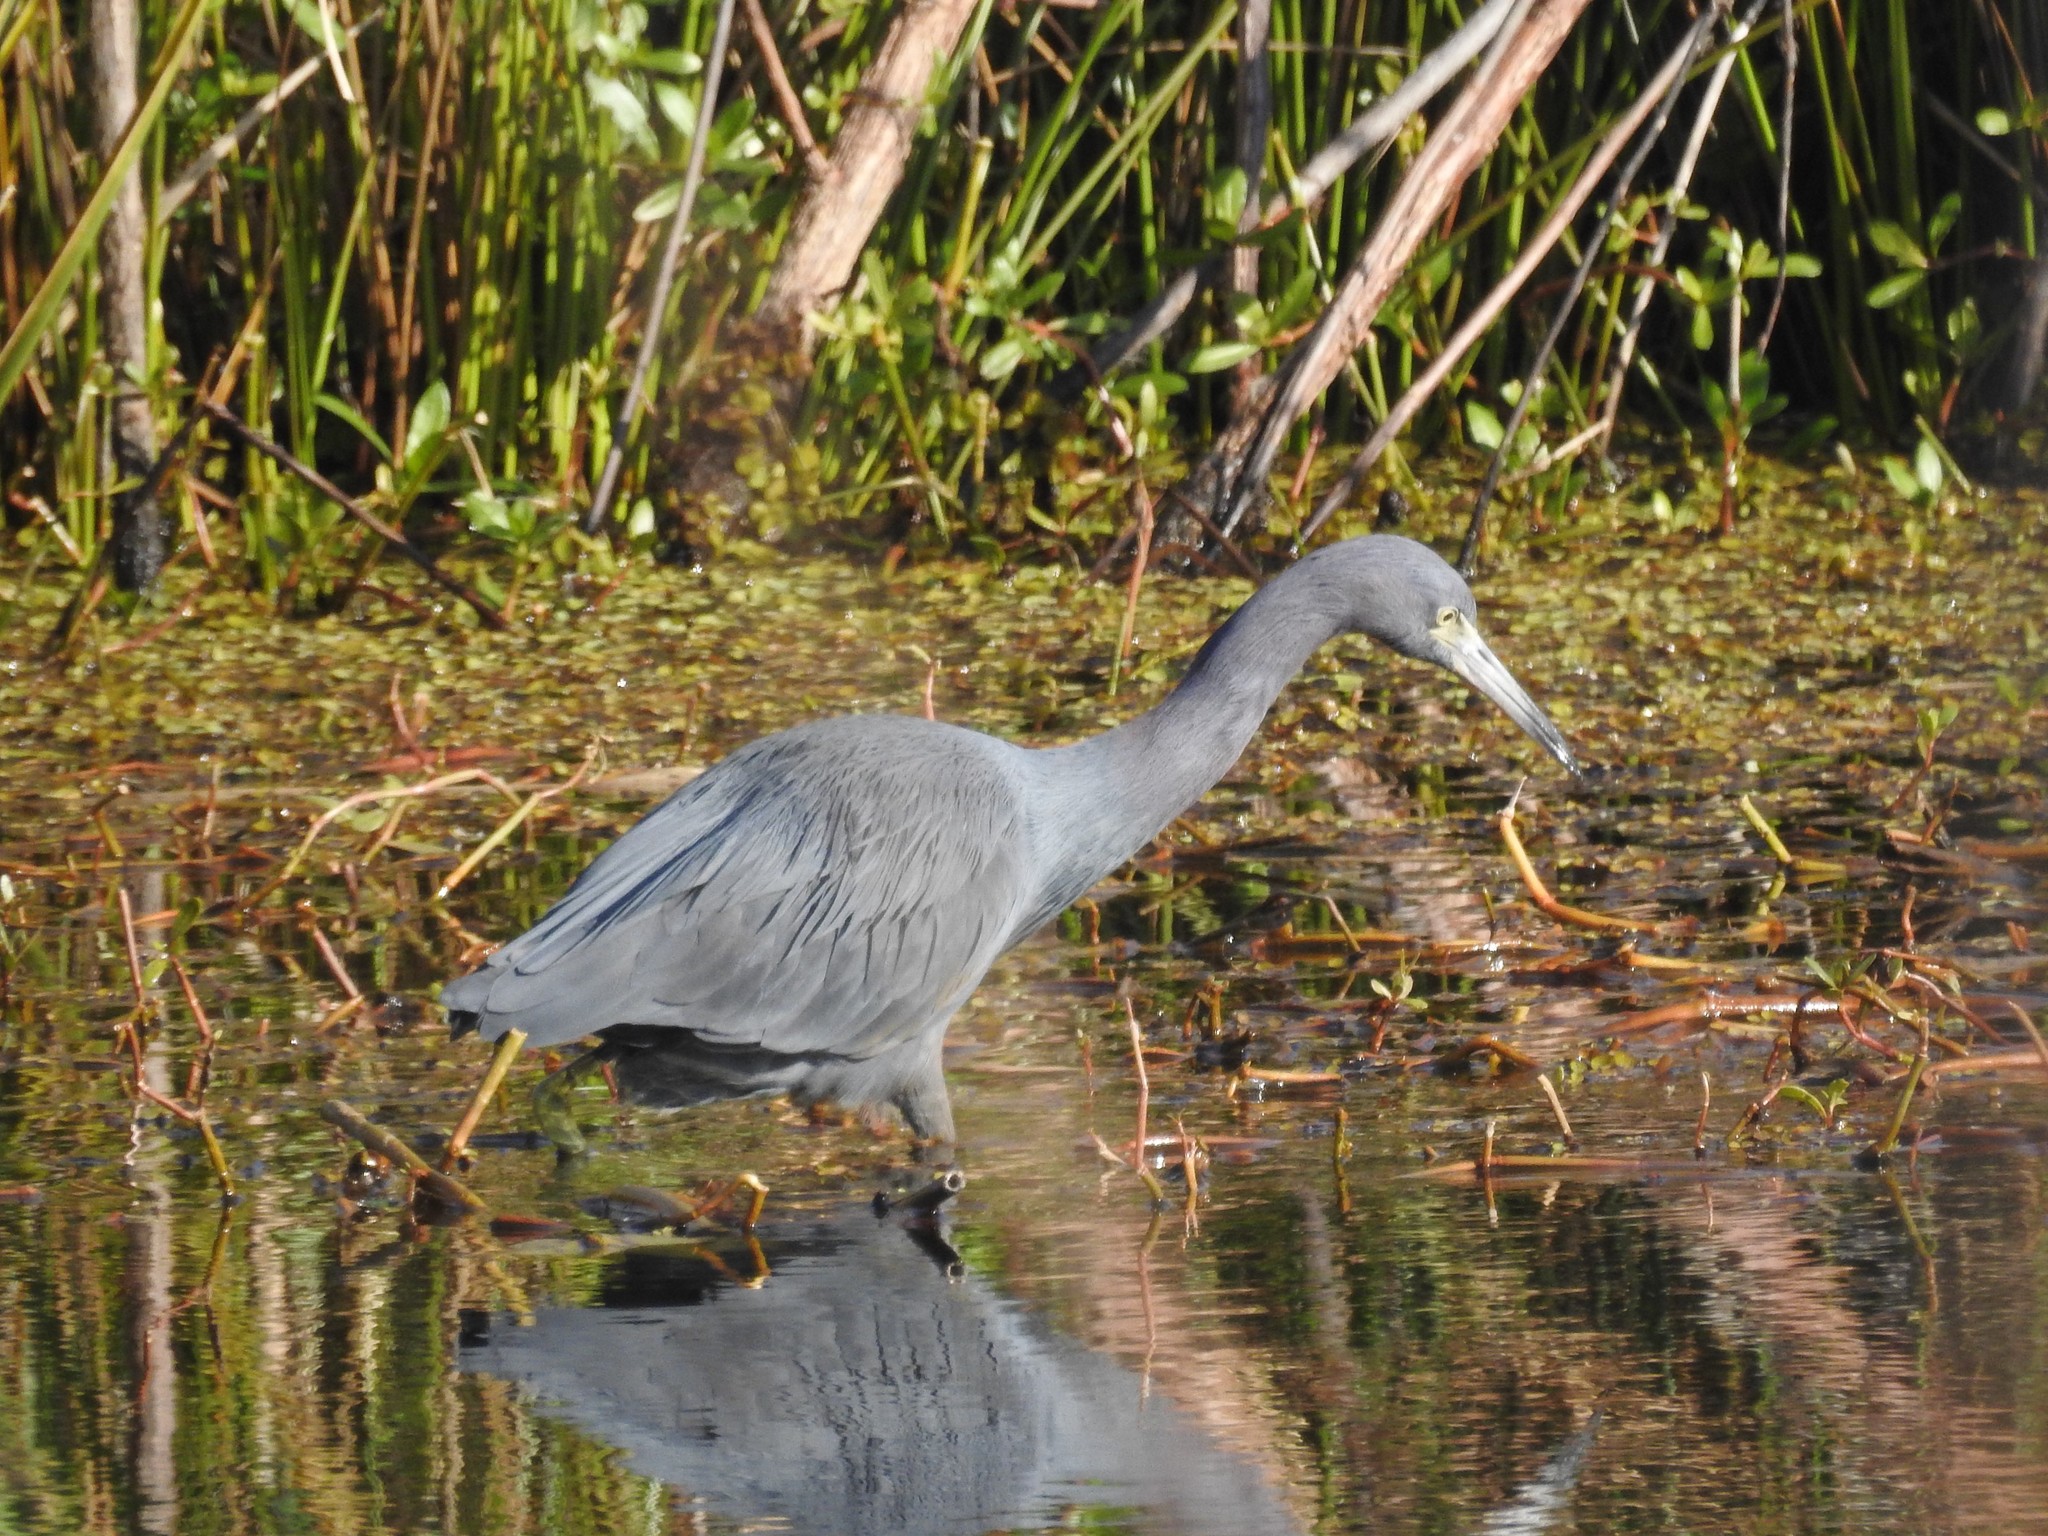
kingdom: Animalia
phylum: Chordata
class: Aves
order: Pelecaniformes
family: Ardeidae
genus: Egretta
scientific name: Egretta caerulea
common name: Little blue heron
